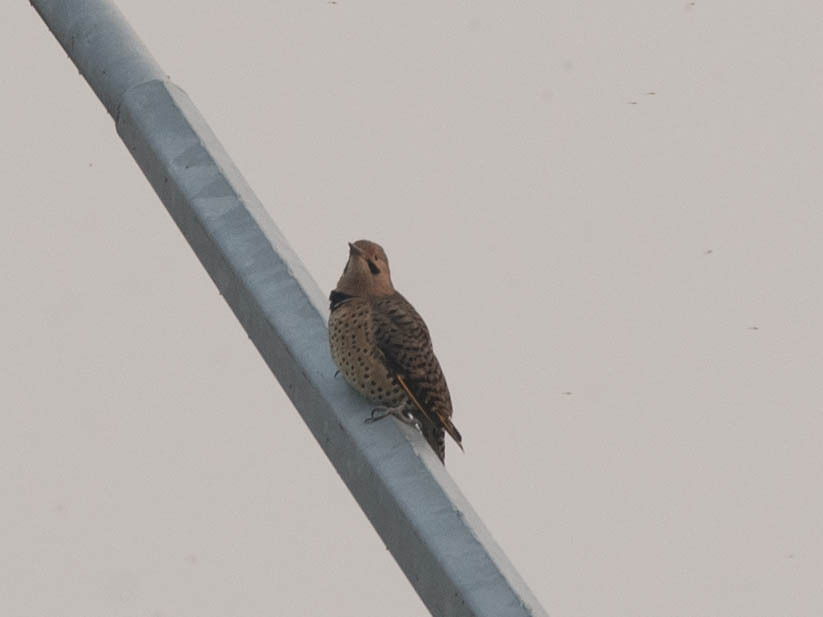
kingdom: Animalia
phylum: Chordata
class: Aves
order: Piciformes
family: Picidae
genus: Colaptes
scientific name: Colaptes auratus
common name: Northern flicker
